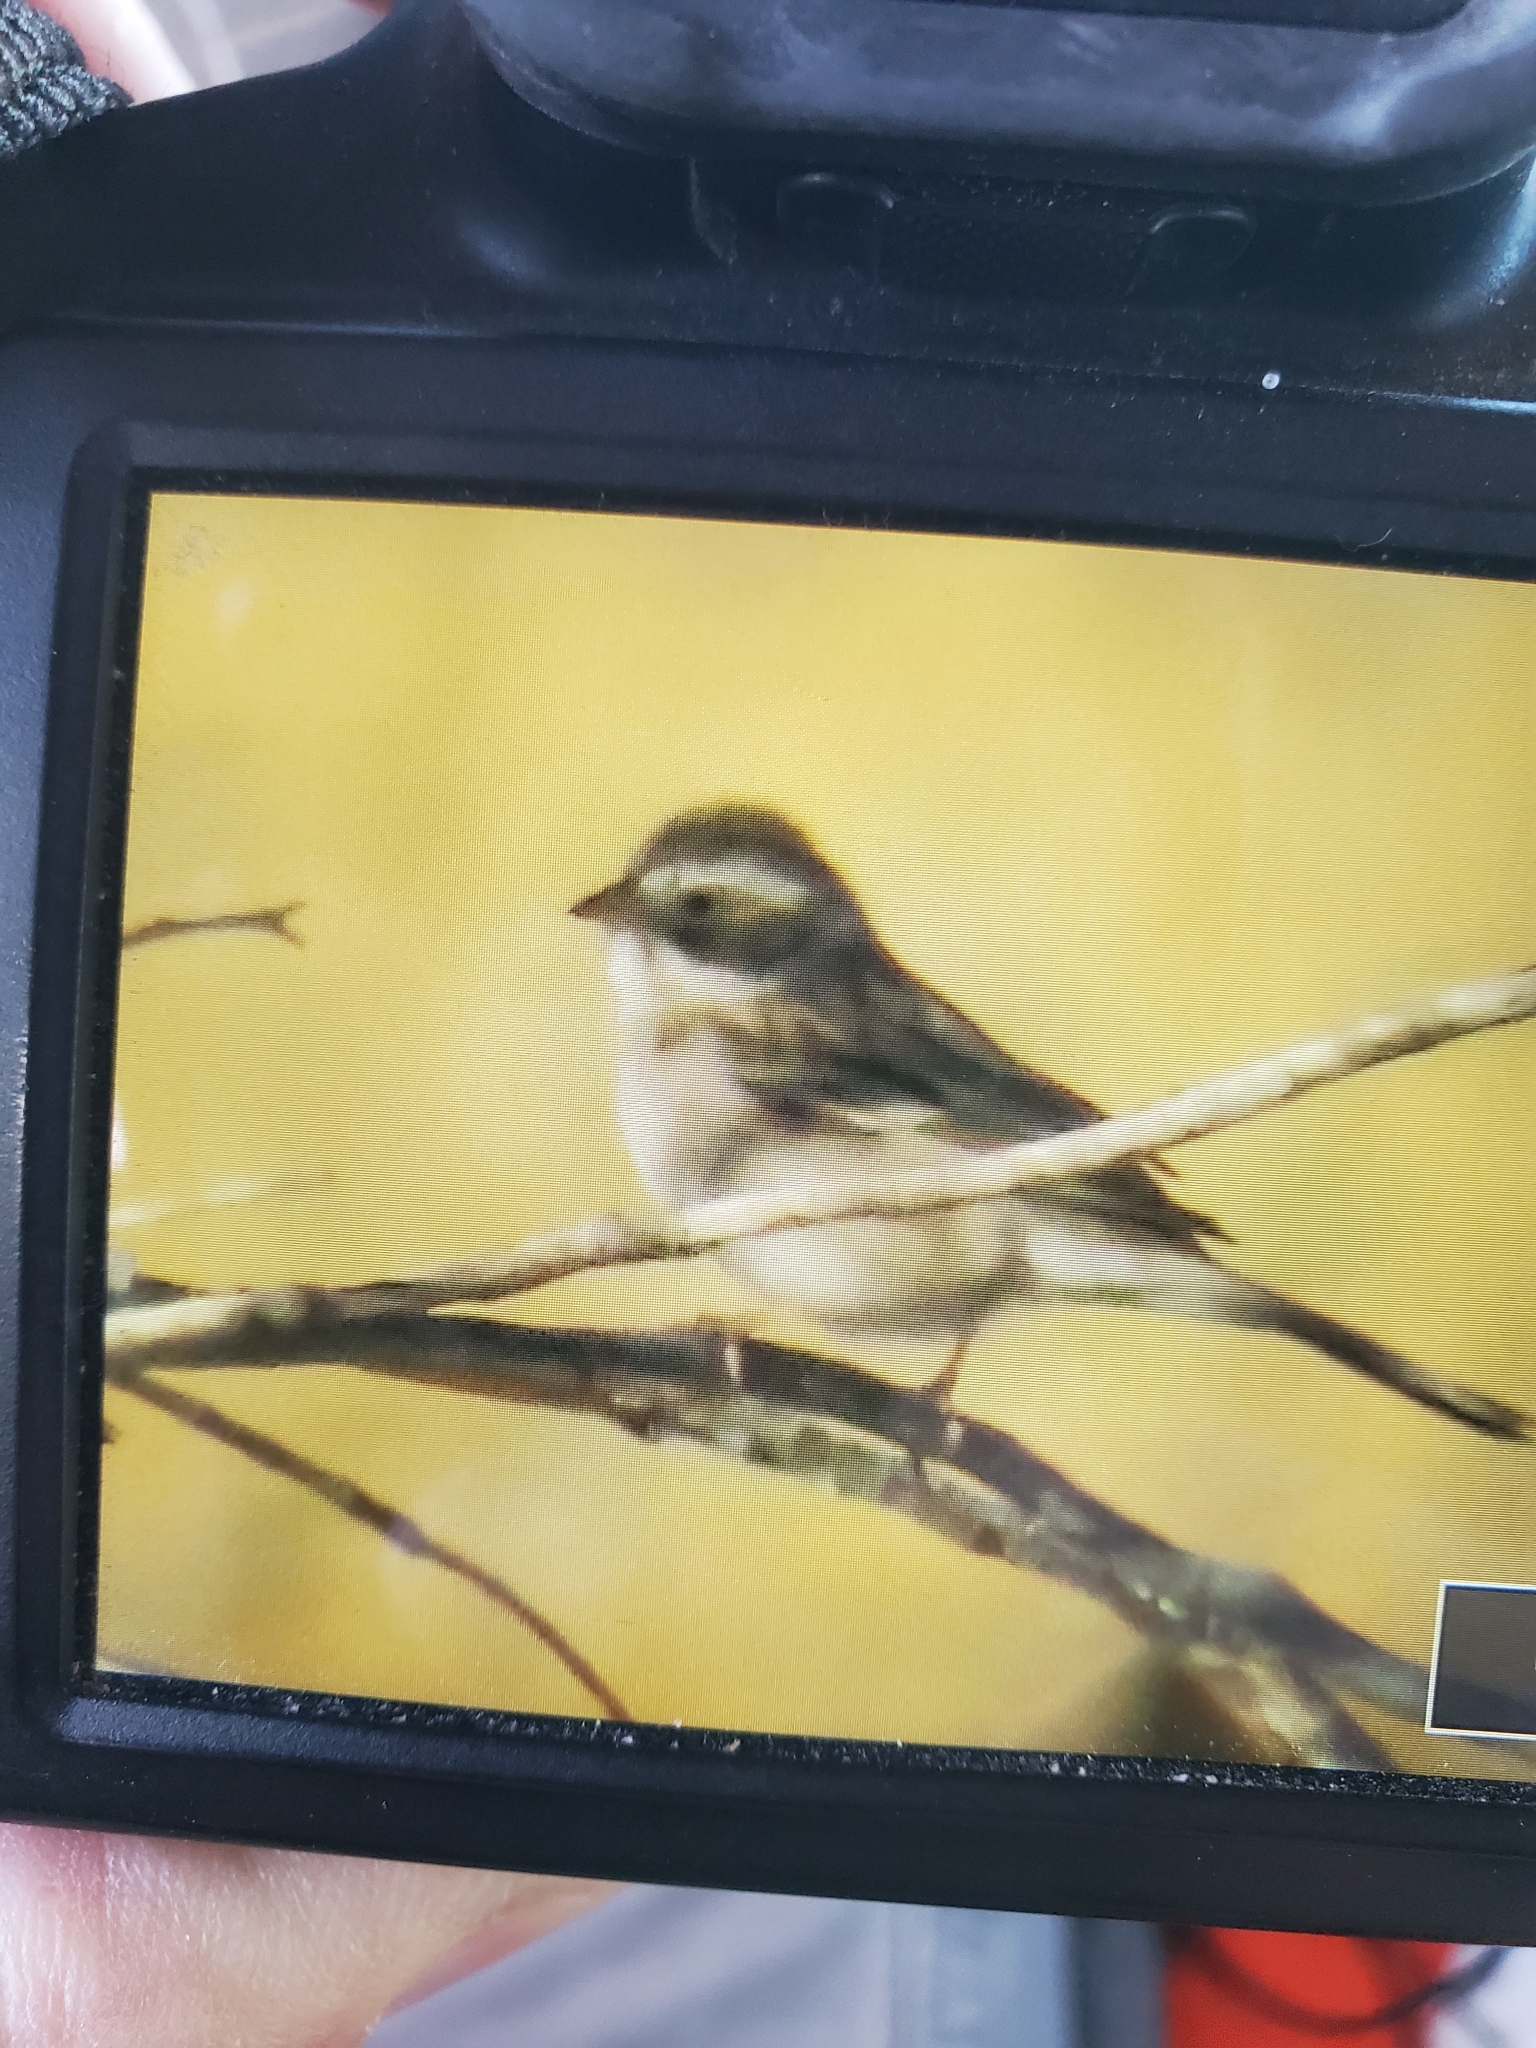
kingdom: Animalia
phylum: Chordata
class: Aves
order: Passeriformes
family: Passerellidae
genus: Spizella
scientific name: Spizella breweri
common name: Brewer's sparrow
